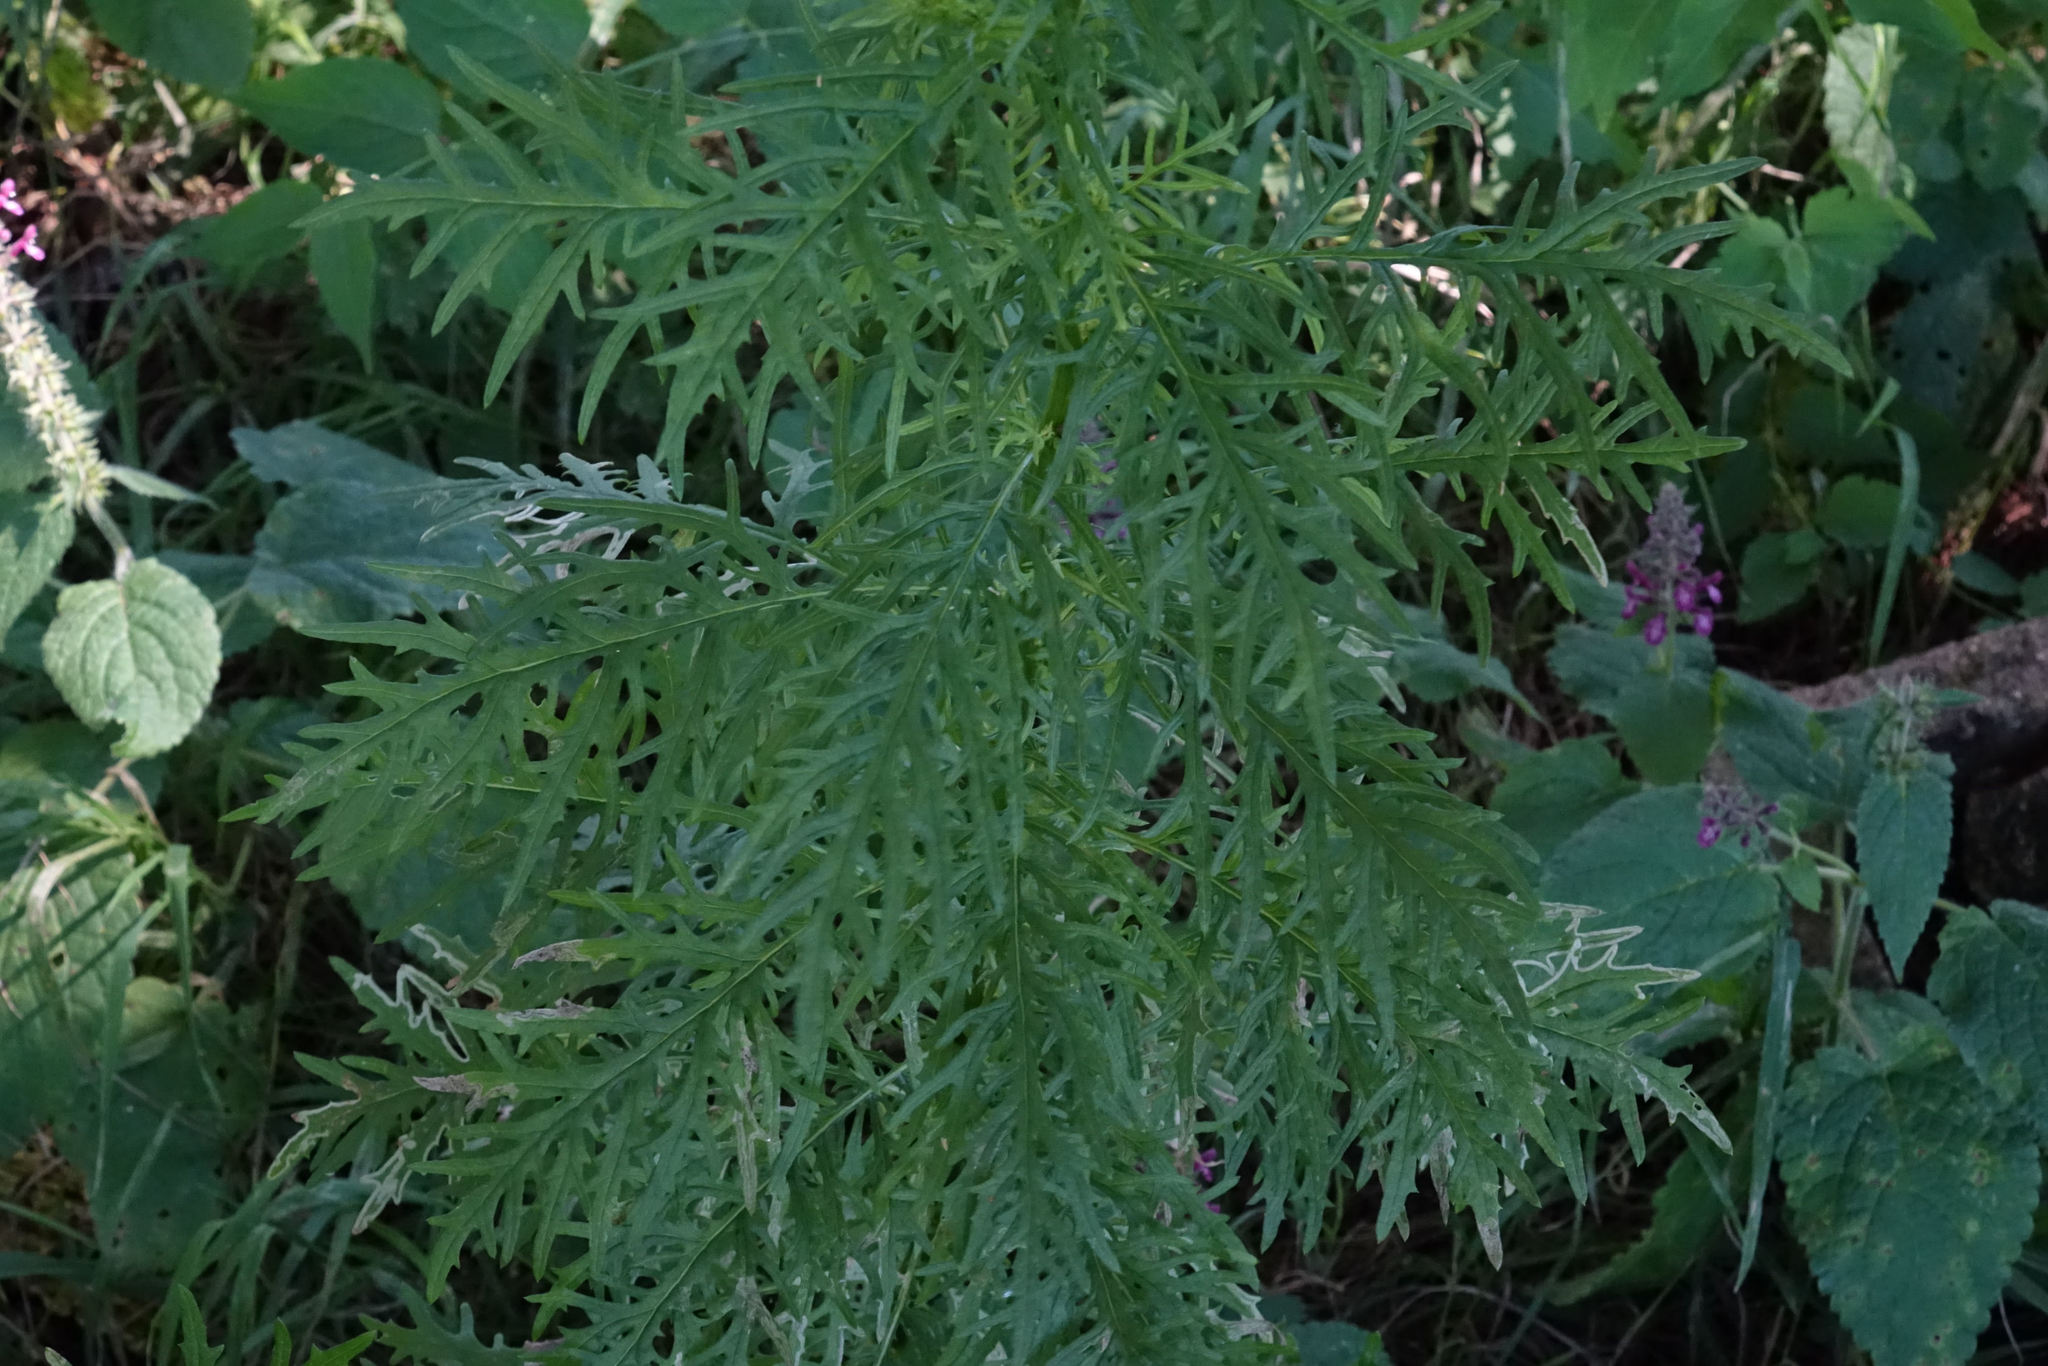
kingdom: Plantae
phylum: Tracheophyta
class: Magnoliopsida
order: Asterales
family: Asteraceae
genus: Senecio
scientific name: Senecio bipinnatisectus
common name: Australian fireweed
